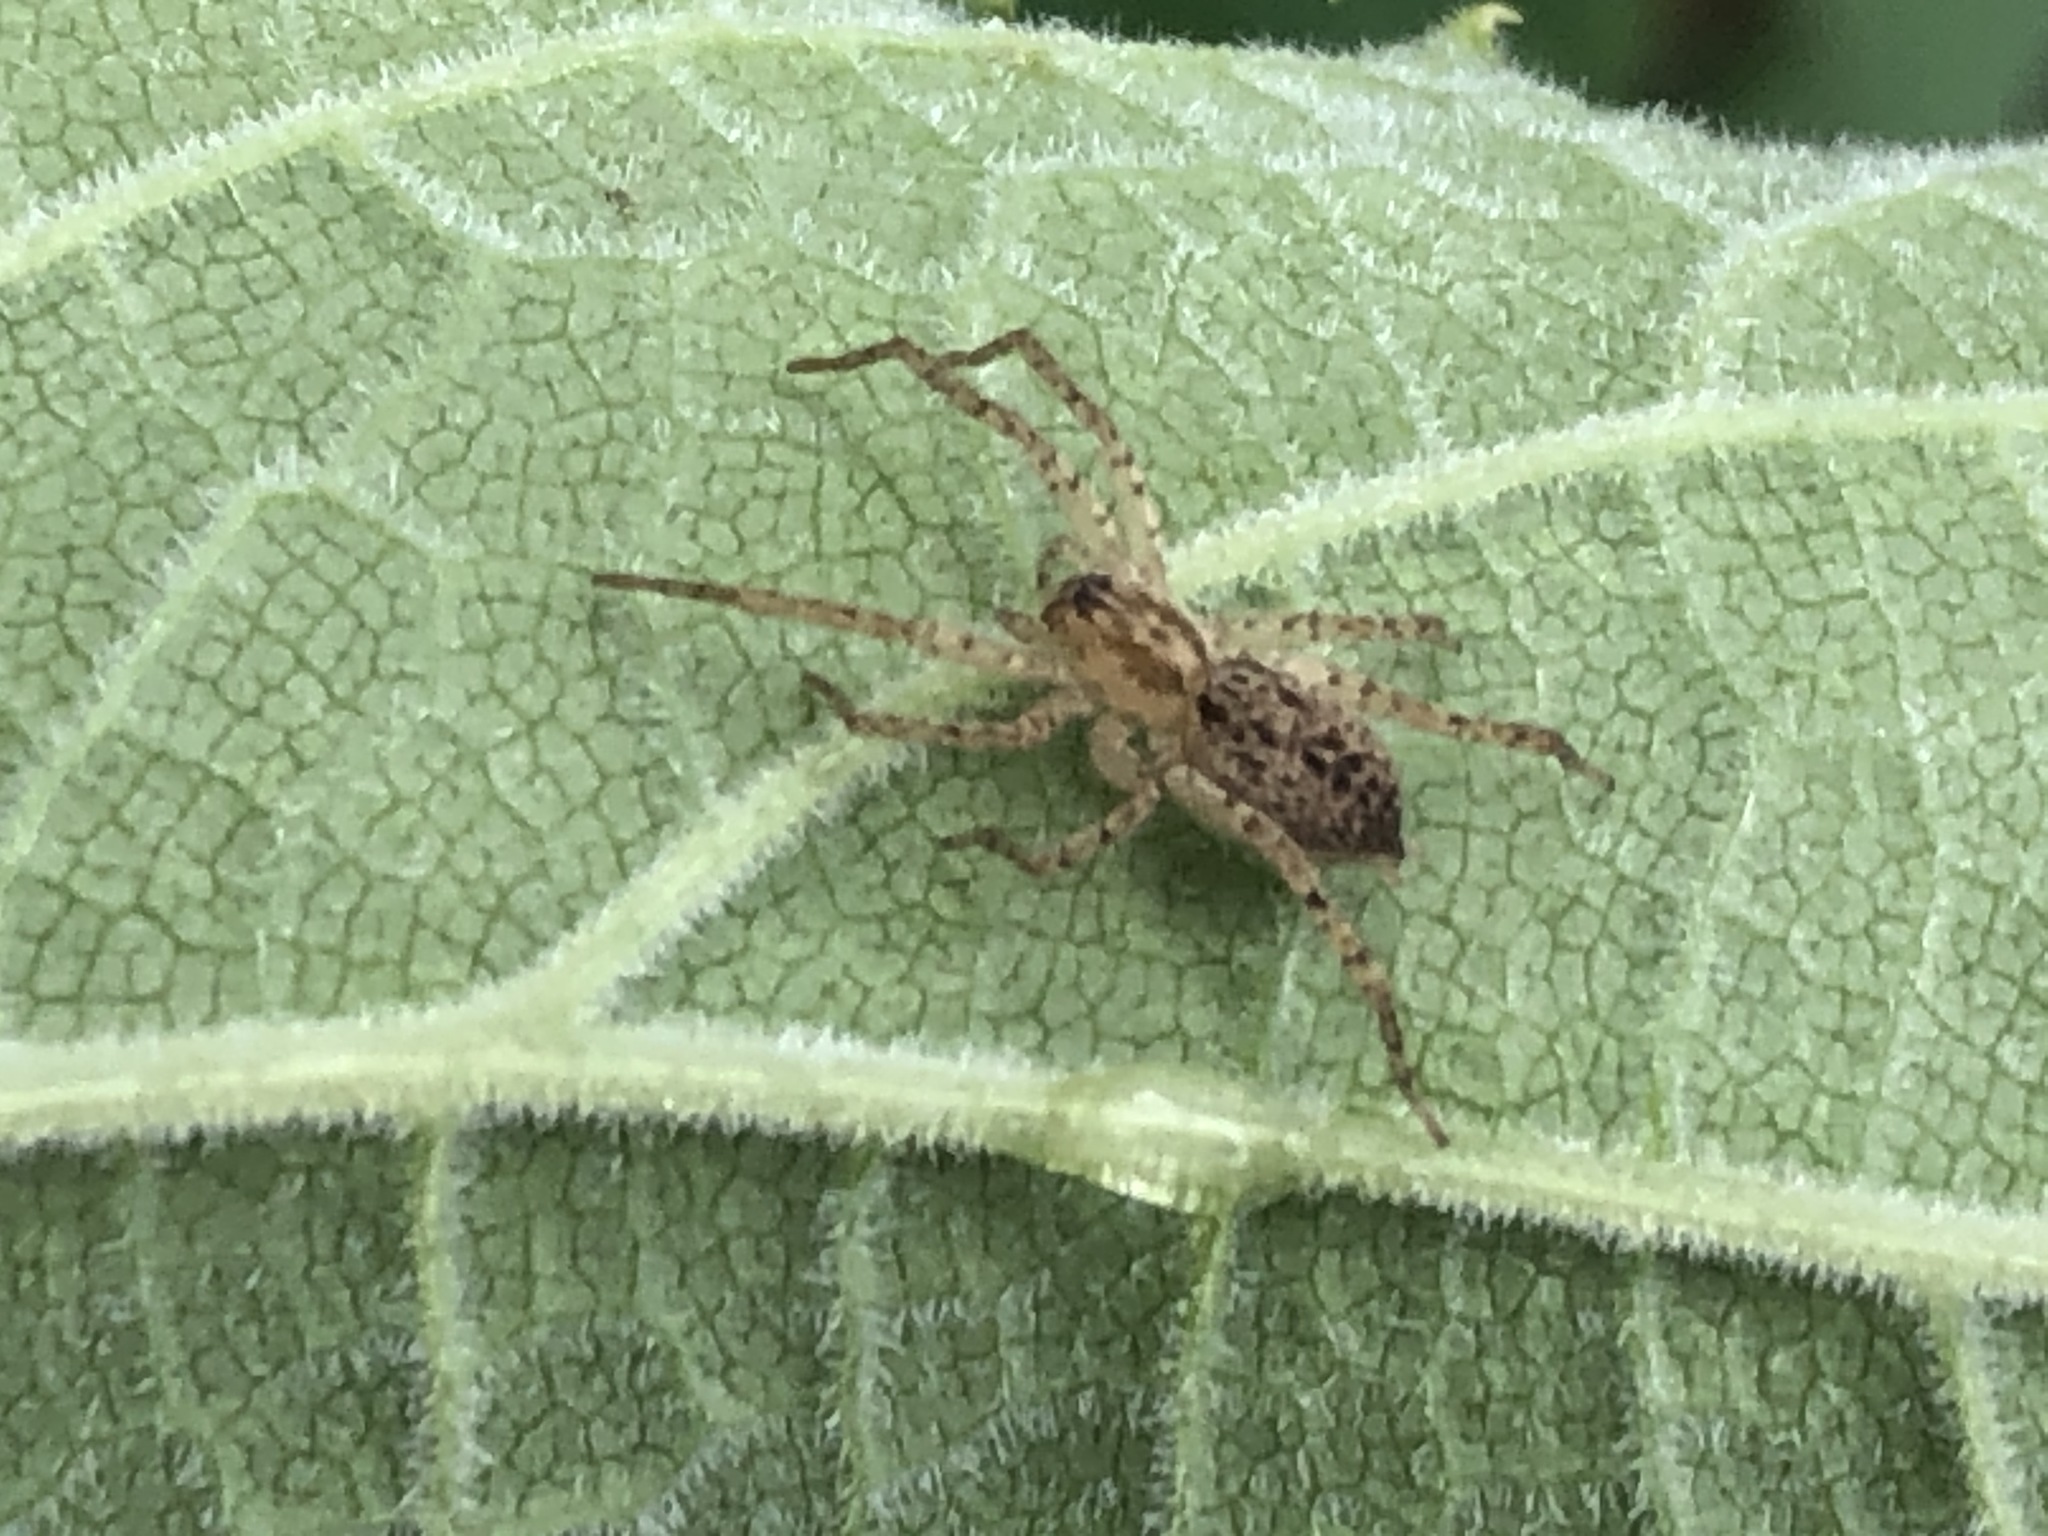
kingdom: Animalia
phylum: Arthropoda
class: Arachnida
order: Araneae
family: Anyphaenidae
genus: Anyphaena
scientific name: Anyphaena
